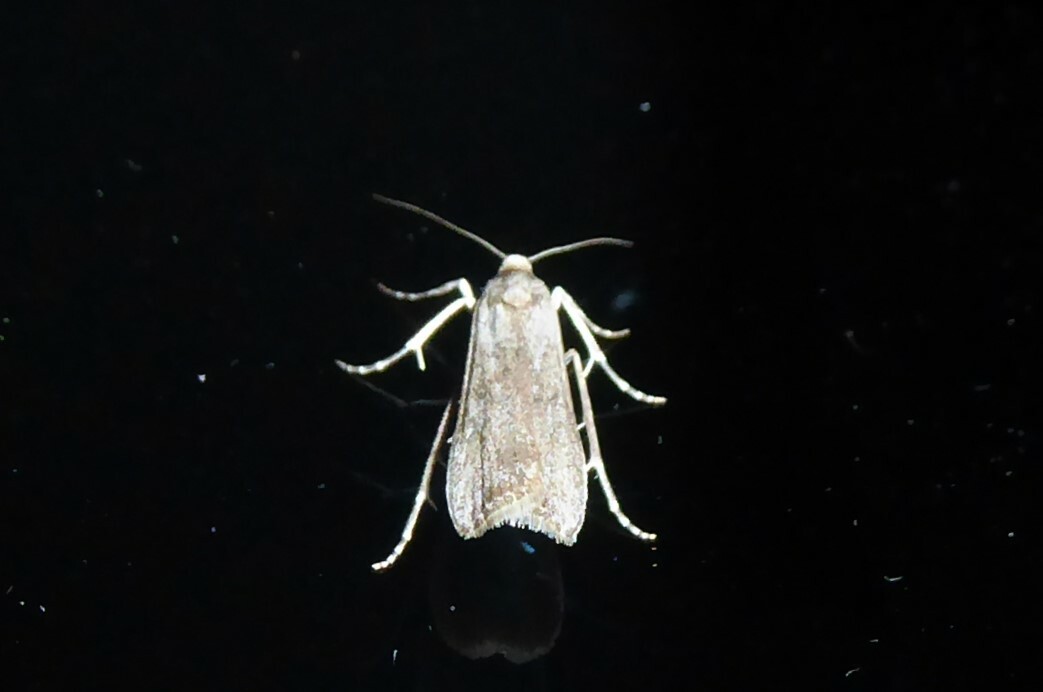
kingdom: Animalia
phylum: Arthropoda
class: Insecta
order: Lepidoptera
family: Crambidae
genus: Eudonia
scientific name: Eudonia leptalea
